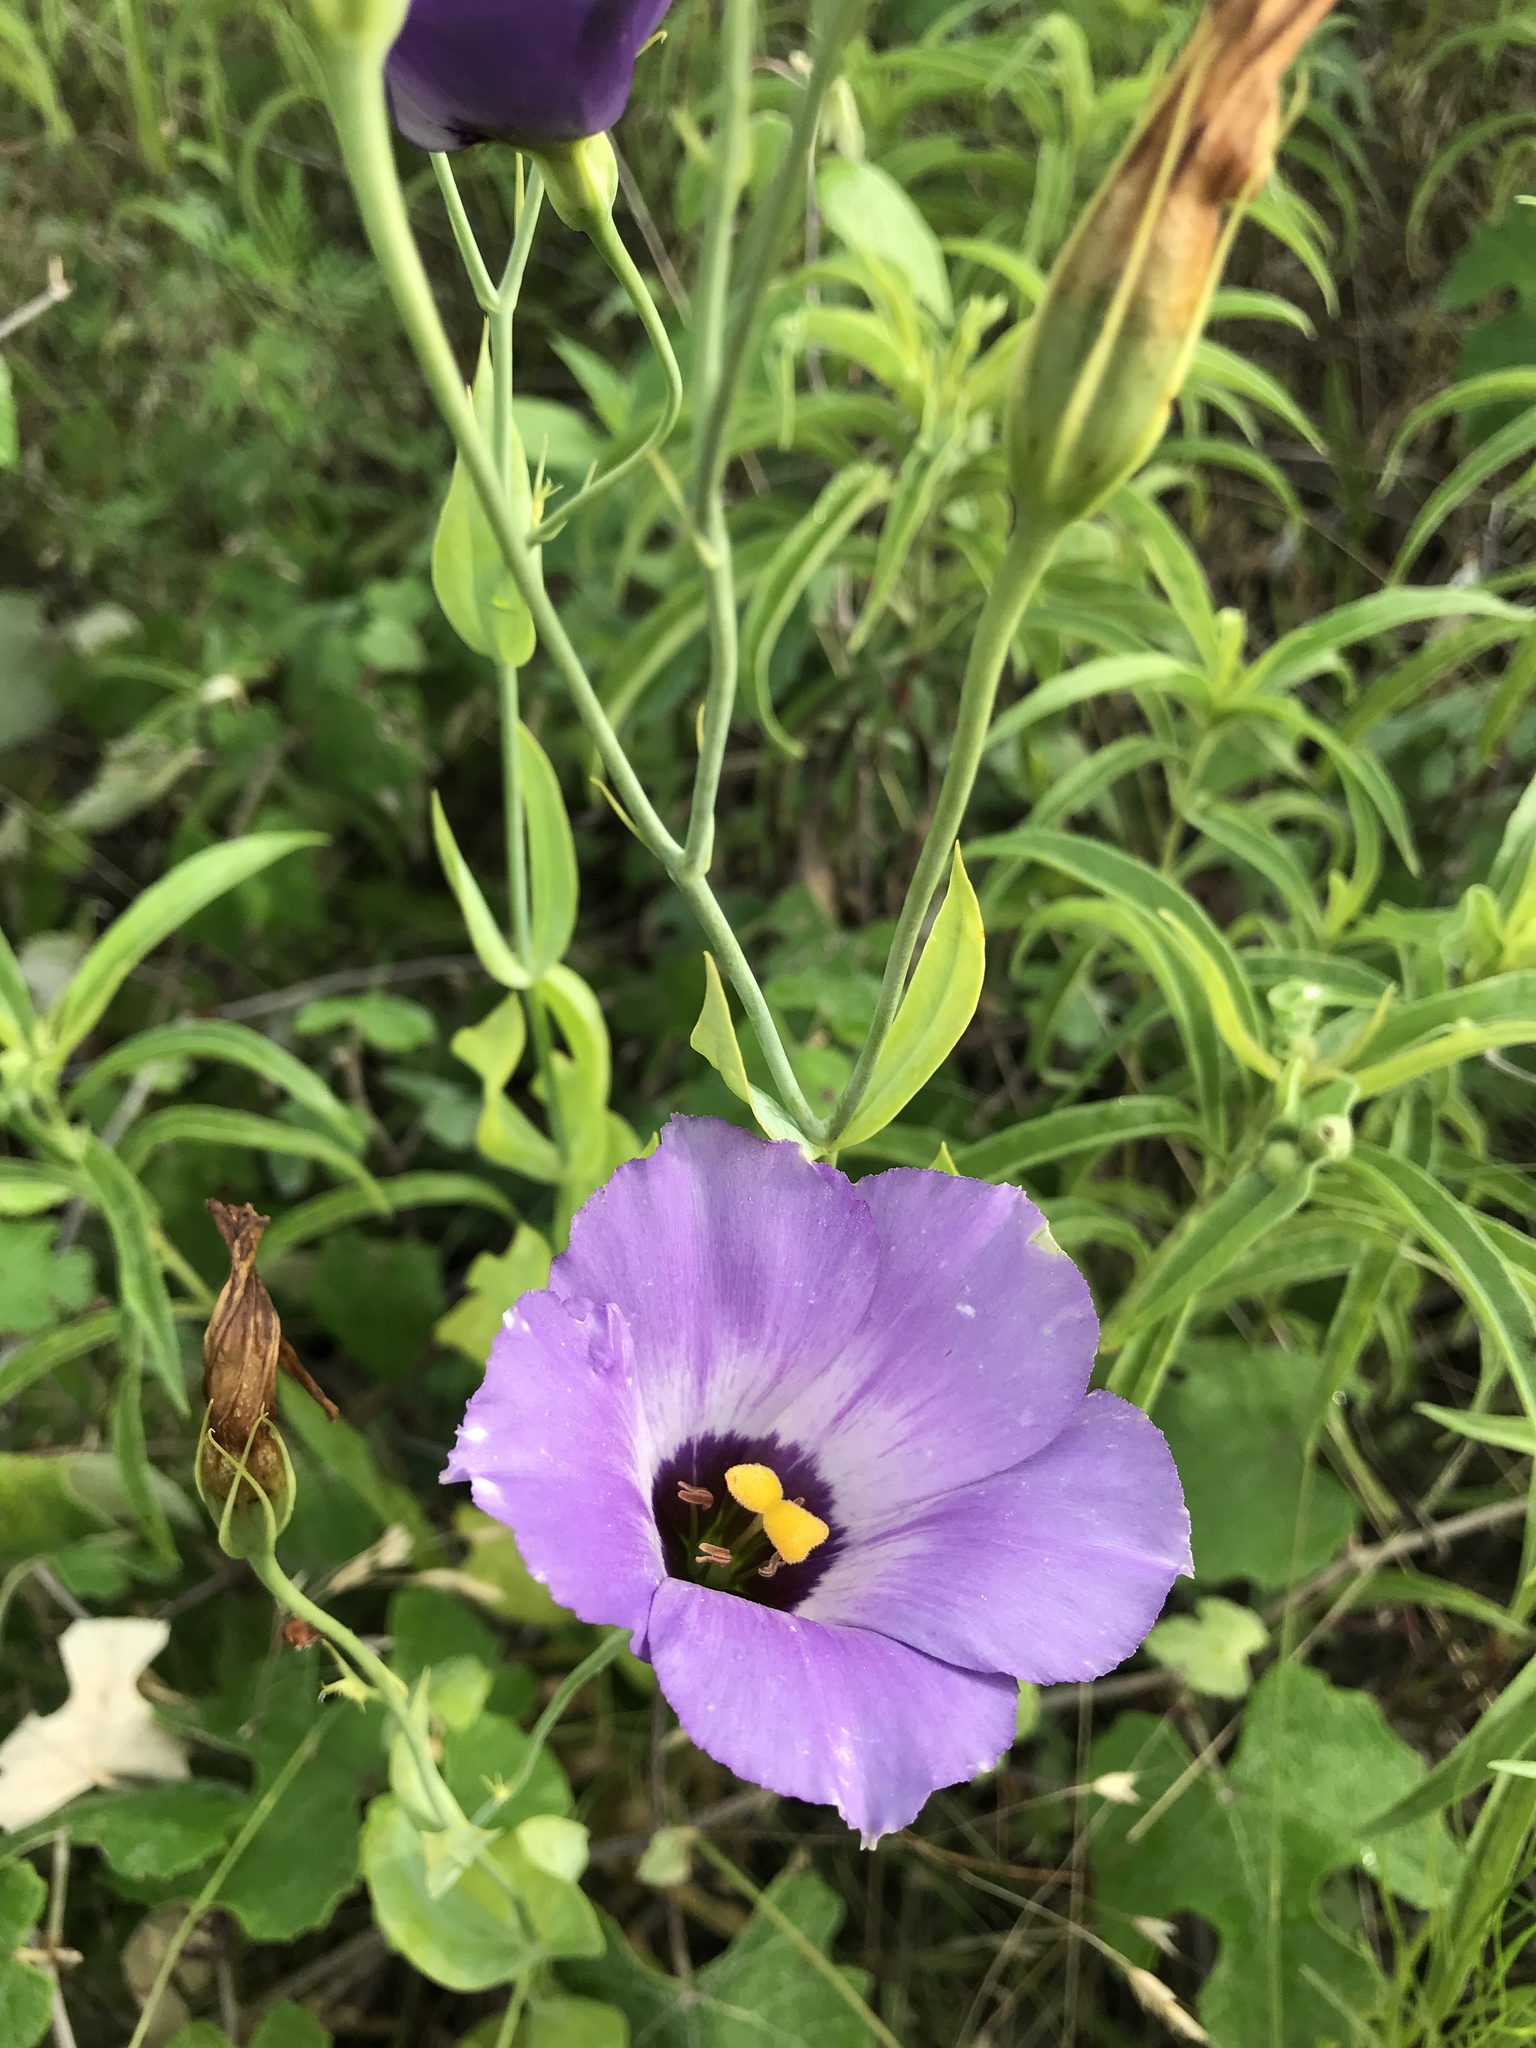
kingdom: Plantae
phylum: Tracheophyta
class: Magnoliopsida
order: Gentianales
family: Gentianaceae
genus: Eustoma
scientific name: Eustoma russellianum
